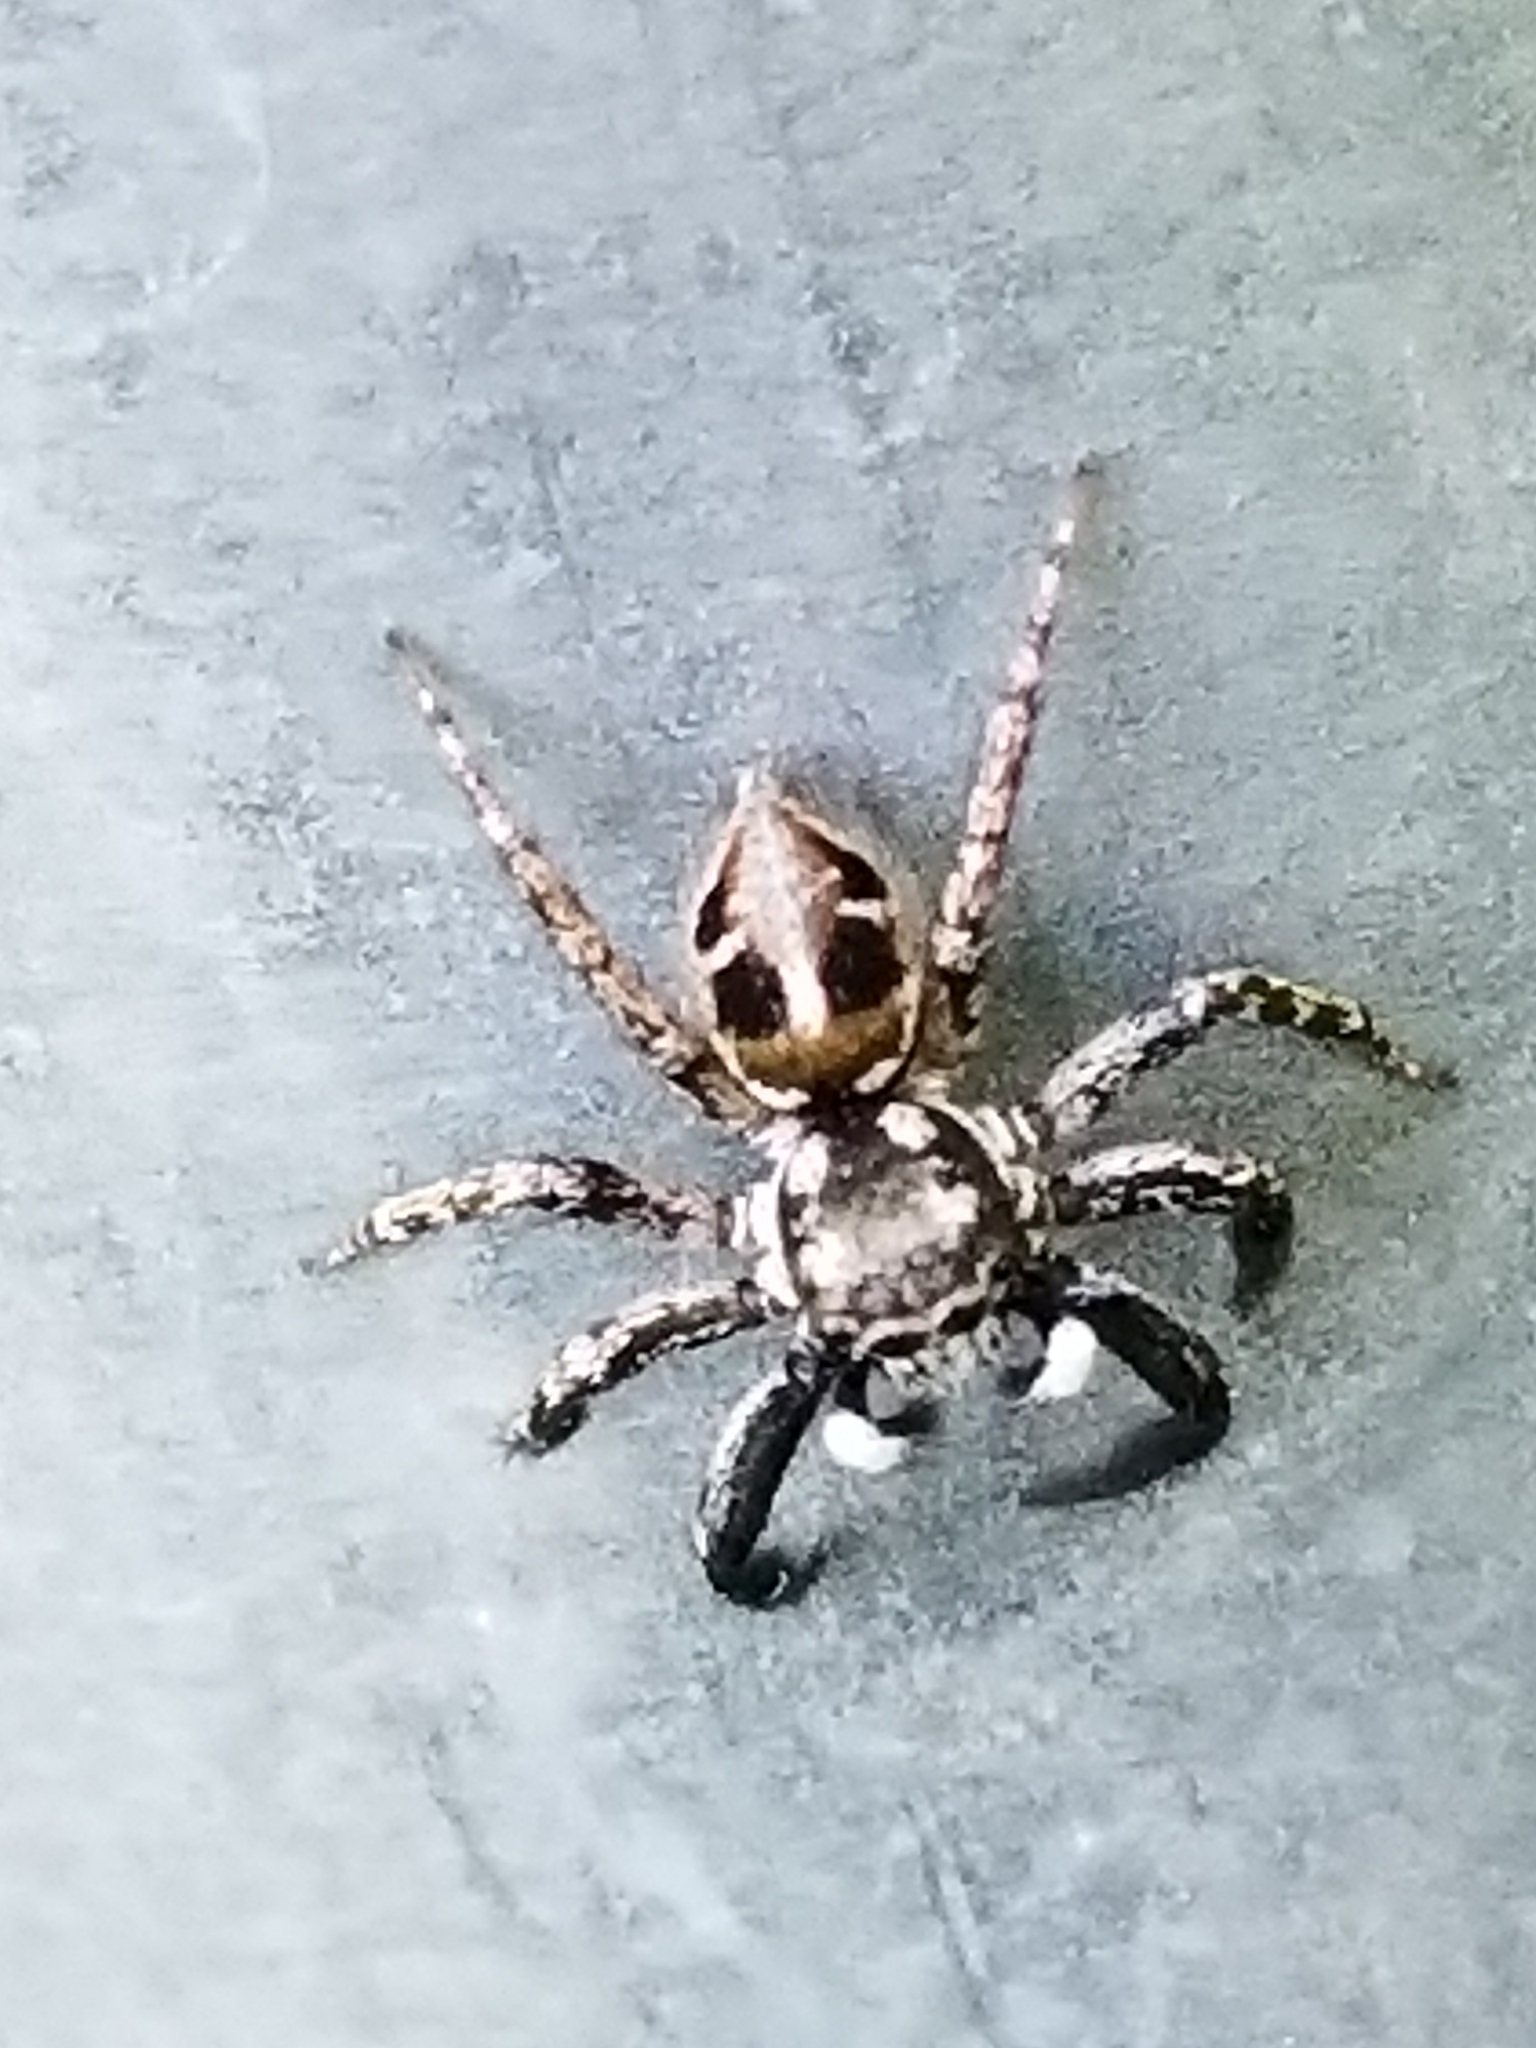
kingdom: Animalia
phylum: Arthropoda
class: Arachnida
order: Araneae
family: Salticidae
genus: Anasaitis
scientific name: Anasaitis canosa
